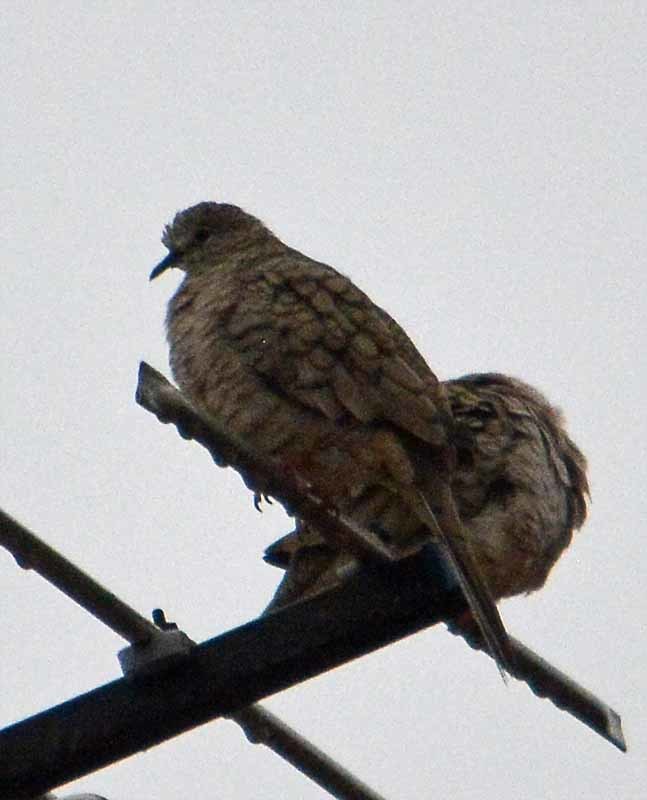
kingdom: Animalia
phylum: Chordata
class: Aves
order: Columbiformes
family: Columbidae
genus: Columbina
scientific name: Columbina inca
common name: Inca dove
